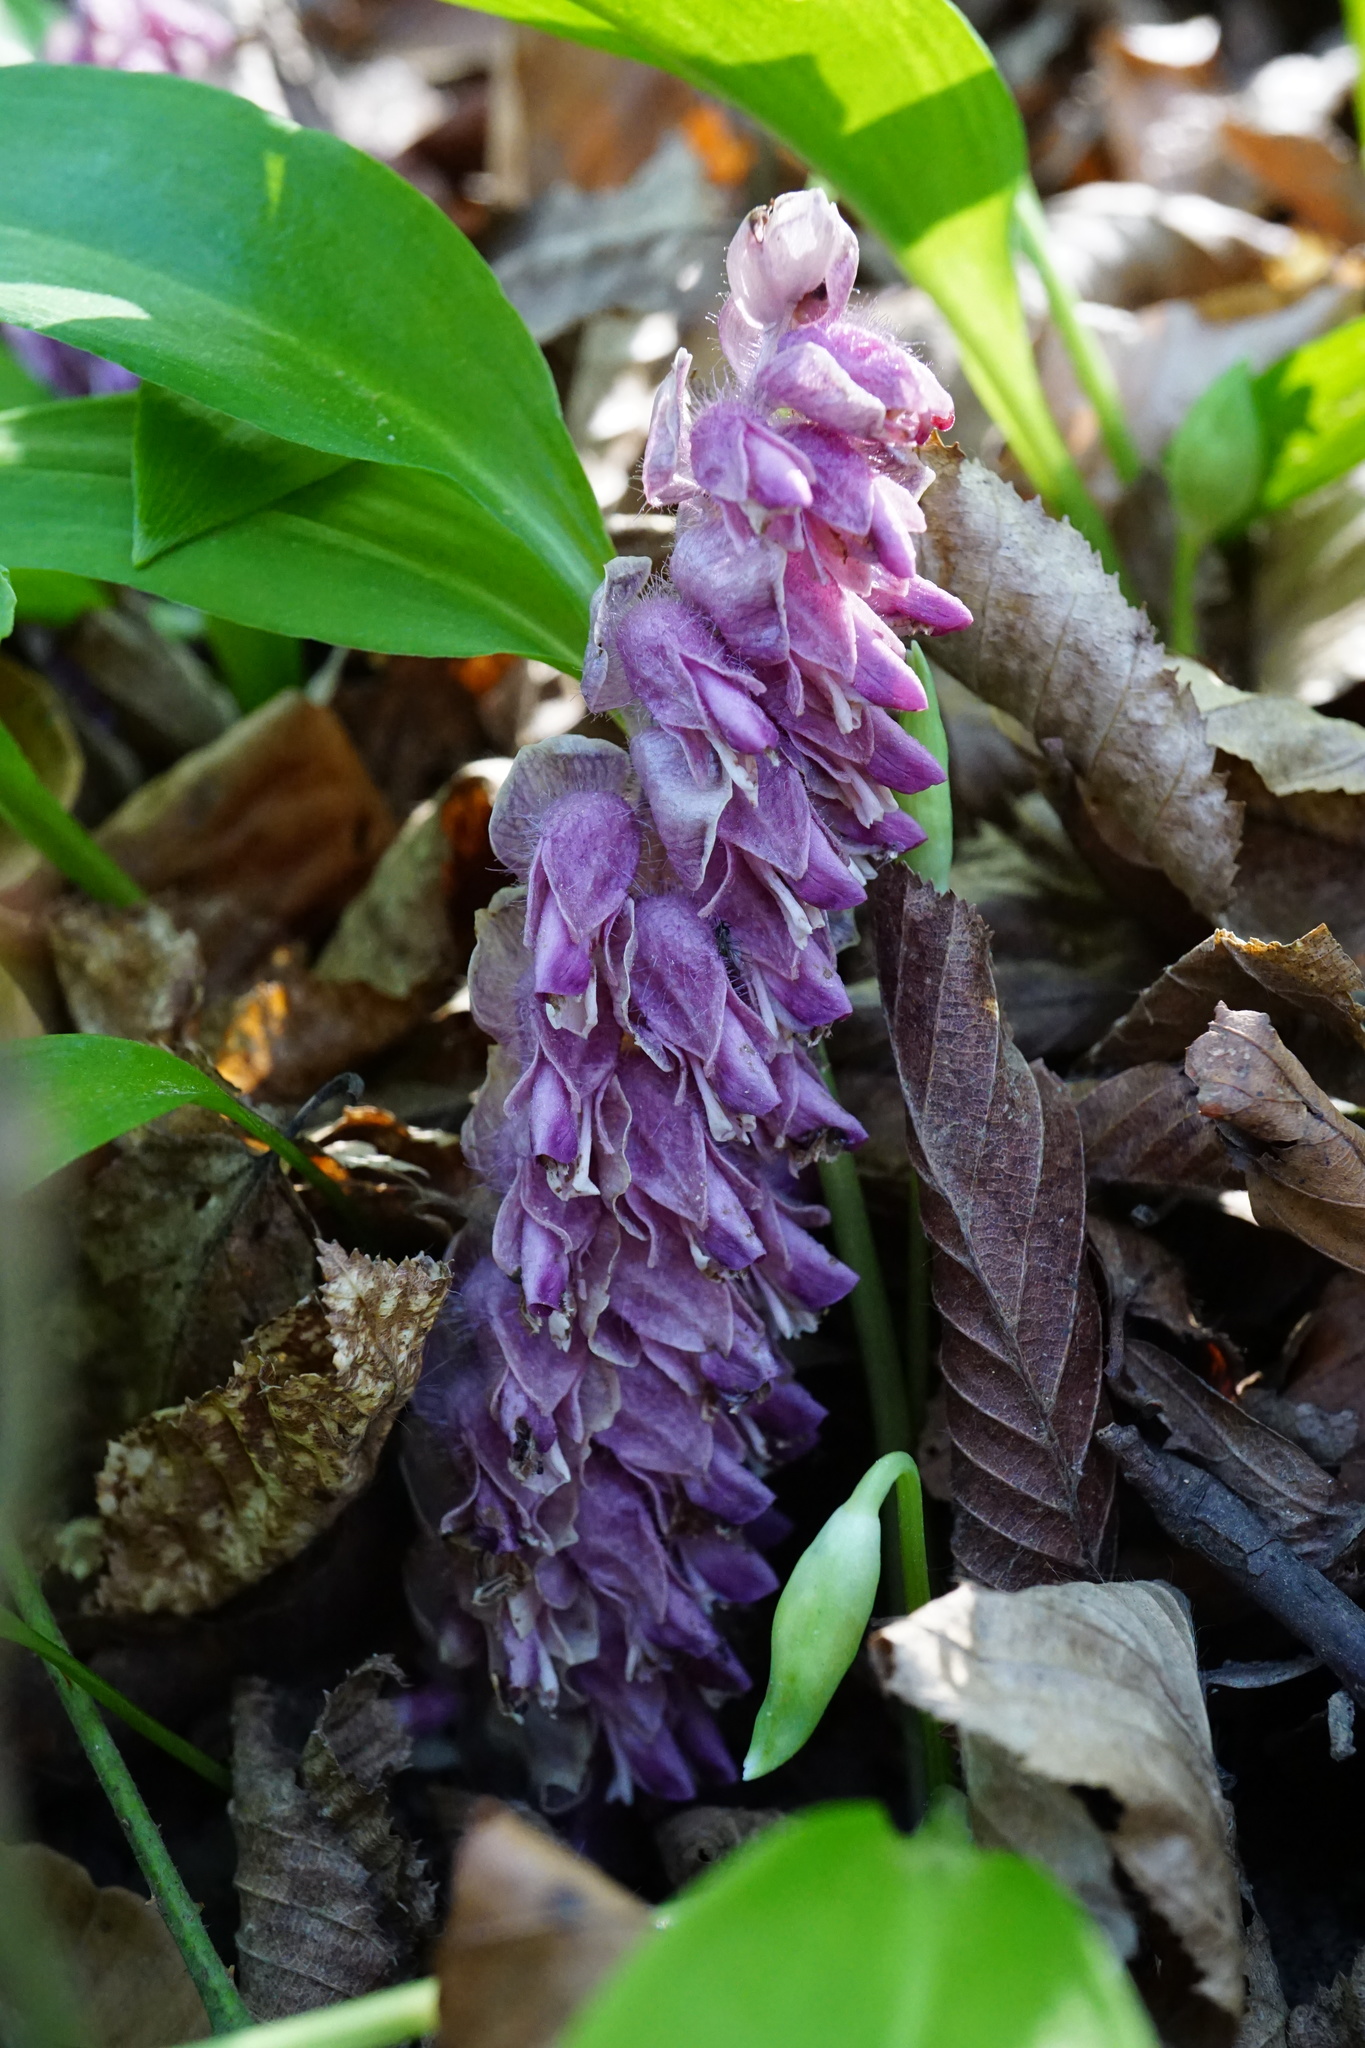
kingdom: Plantae
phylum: Tracheophyta
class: Magnoliopsida
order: Lamiales
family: Orobanchaceae
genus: Lathraea
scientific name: Lathraea squamaria
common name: Toothwort
